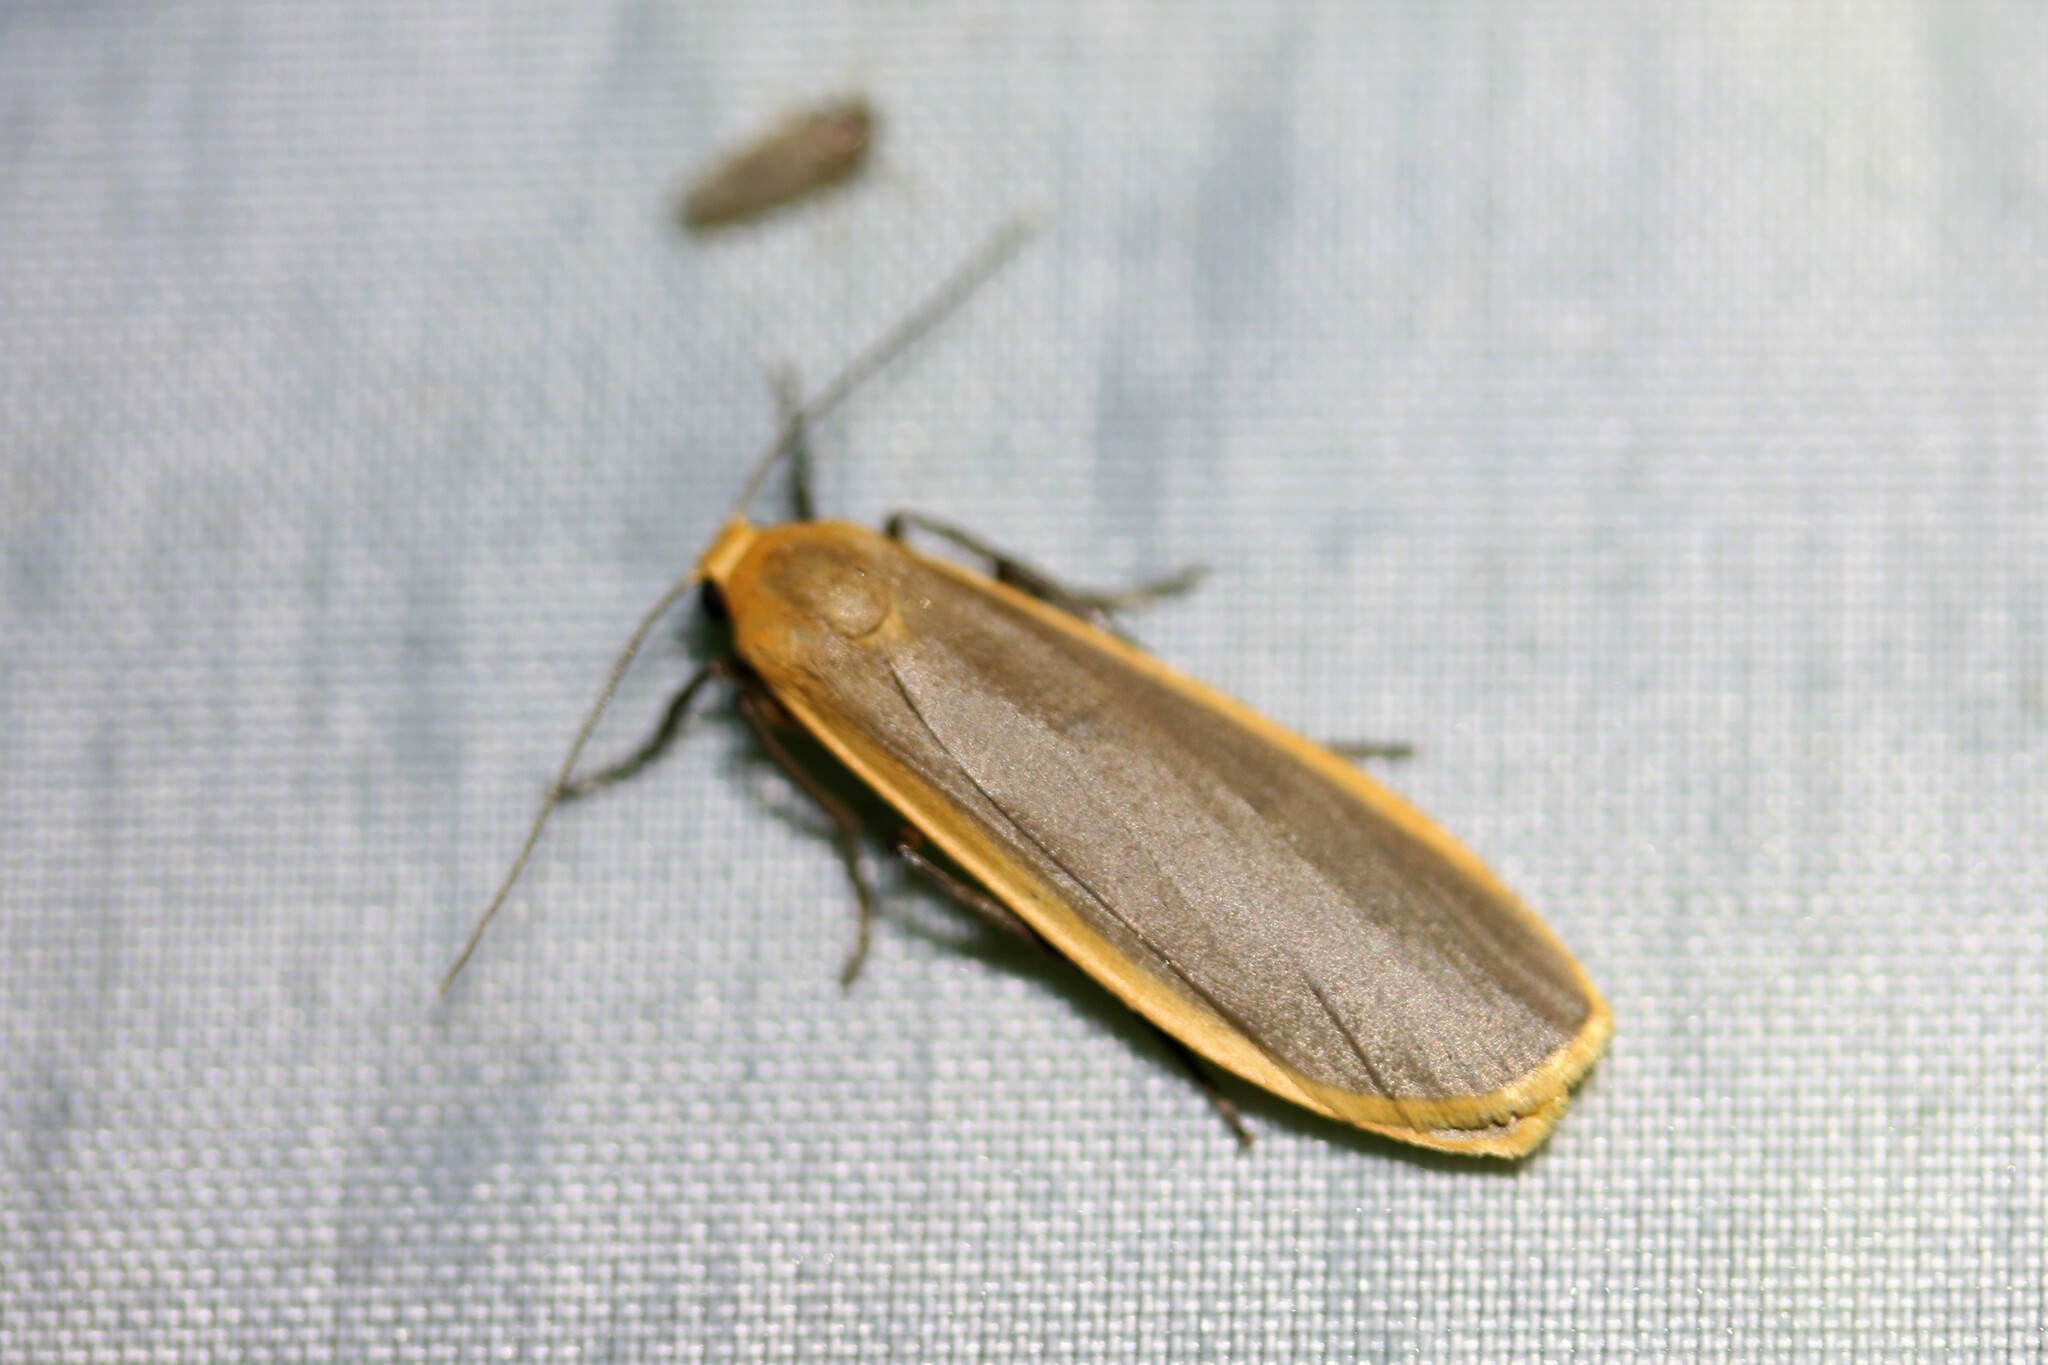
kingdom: Animalia
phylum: Arthropoda
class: Insecta
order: Lepidoptera
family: Erebidae
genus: Katha
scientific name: Katha depressa
